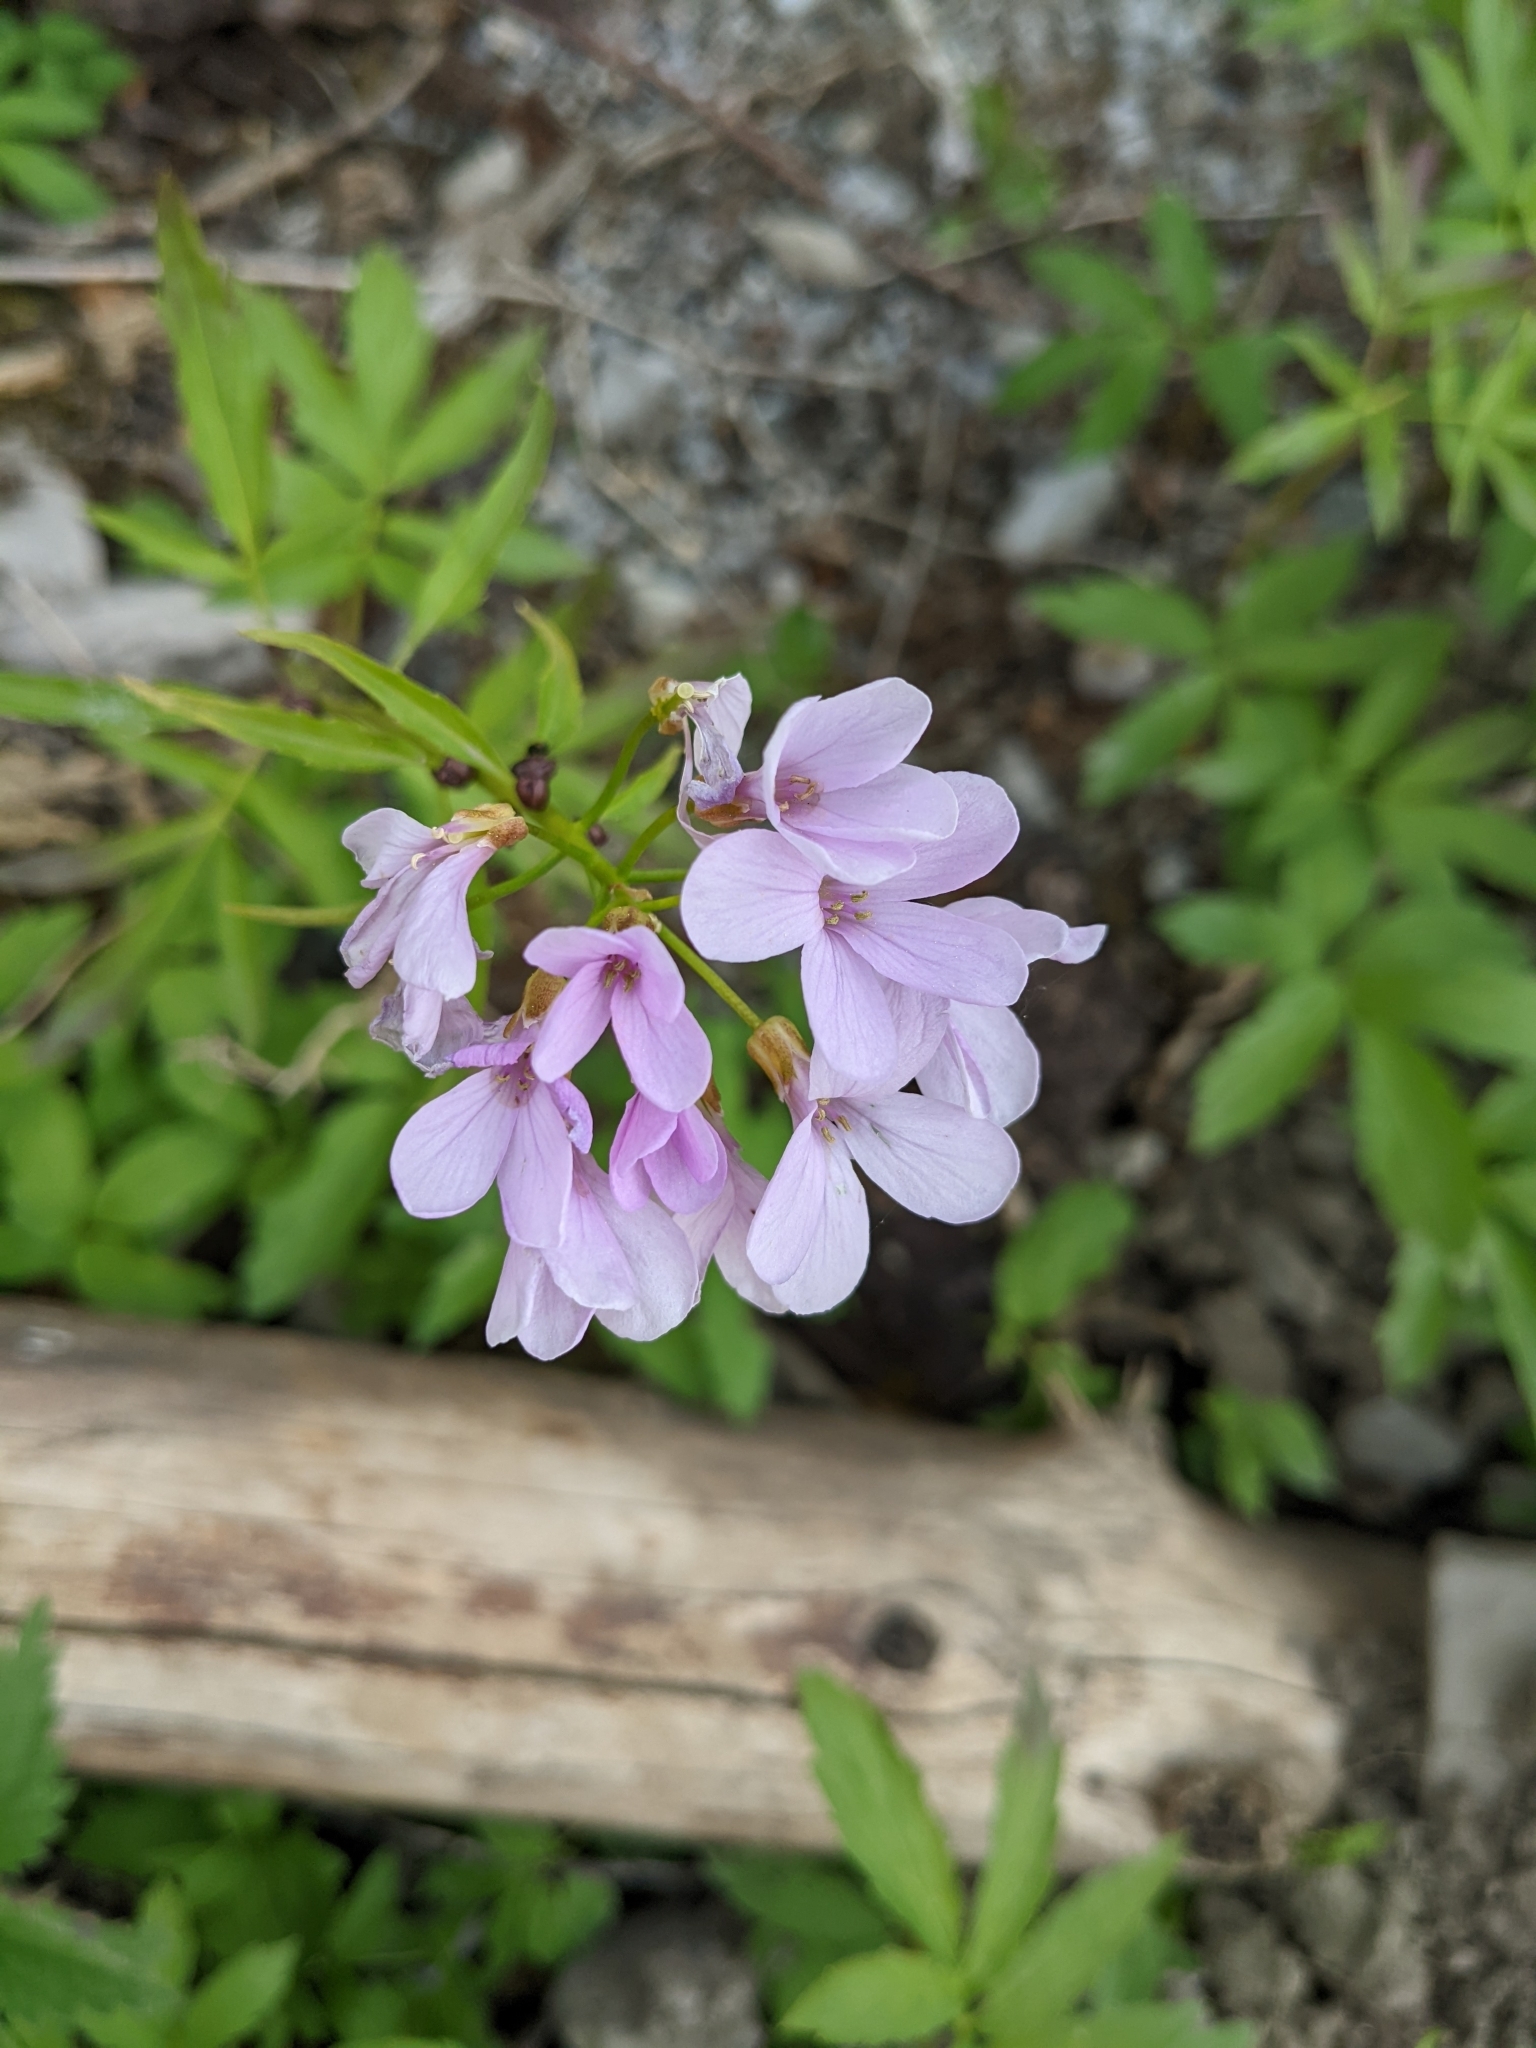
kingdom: Plantae
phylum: Tracheophyta
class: Magnoliopsida
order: Brassicales
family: Brassicaceae
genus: Cardamine
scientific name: Cardamine bulbifera
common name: Coralroot bittercress
